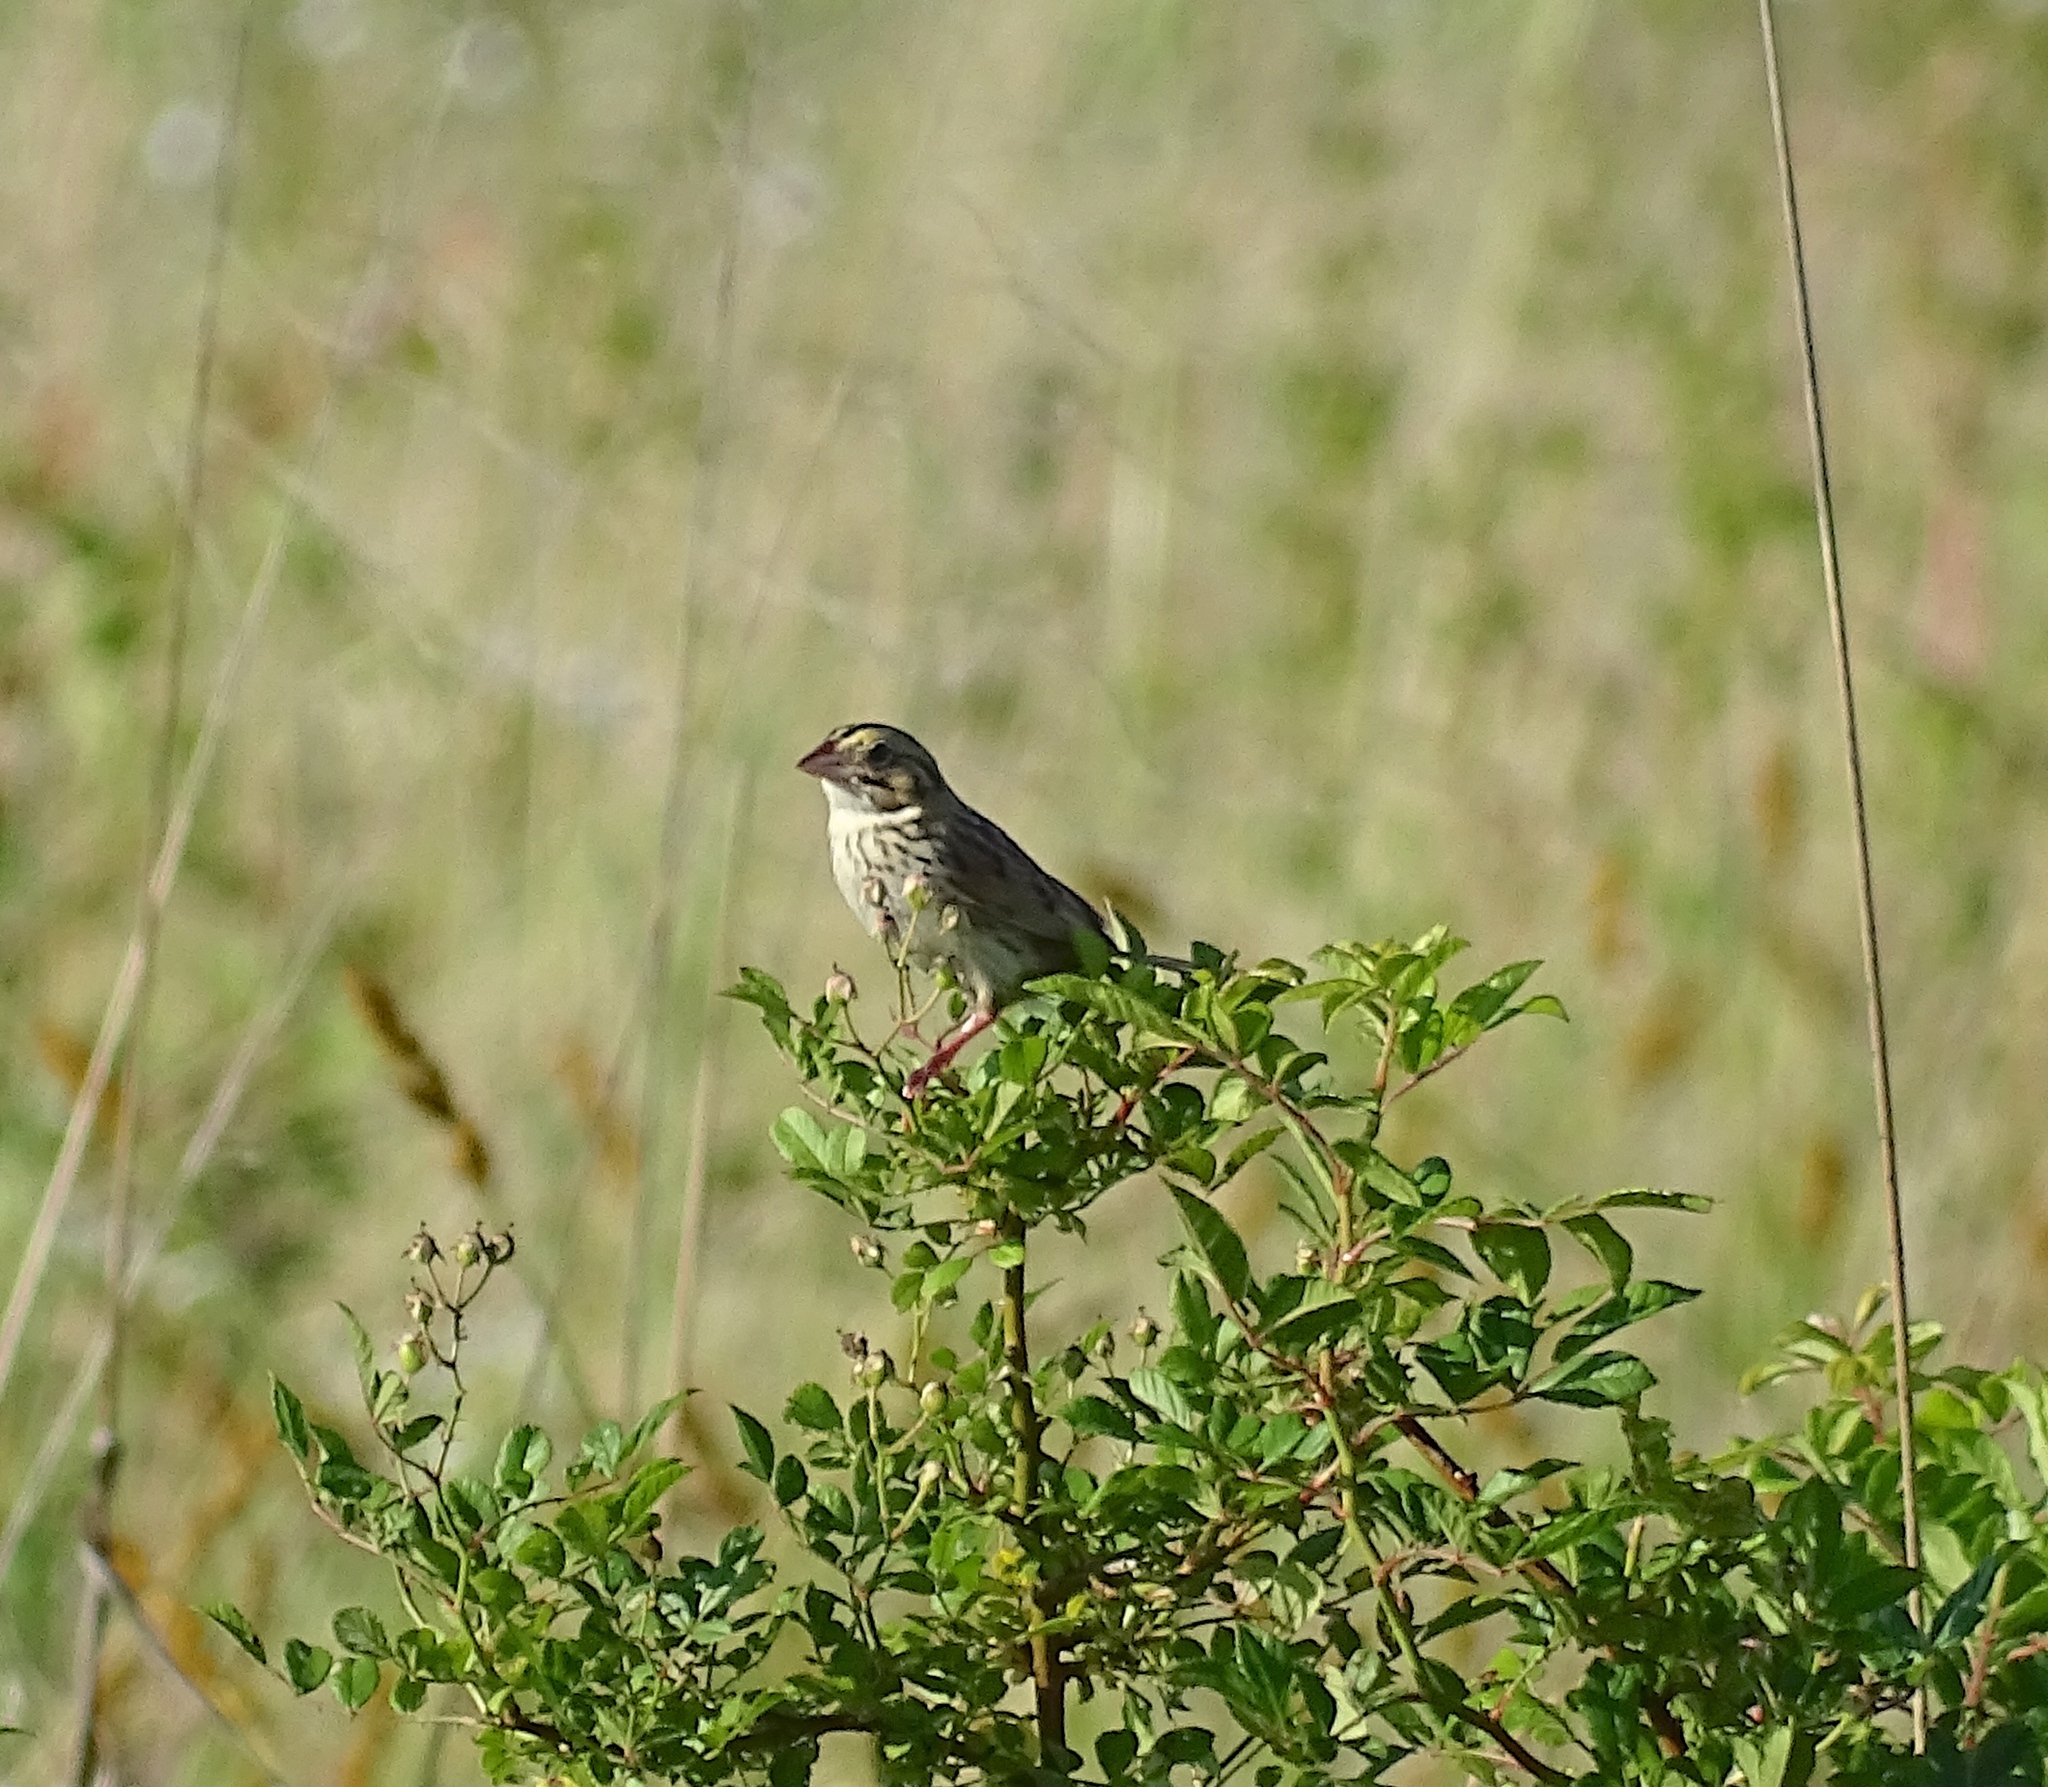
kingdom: Animalia
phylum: Chordata
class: Aves
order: Passeriformes
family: Passerellidae
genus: Centronyx
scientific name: Centronyx henslowii
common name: Henslow's sparrow
